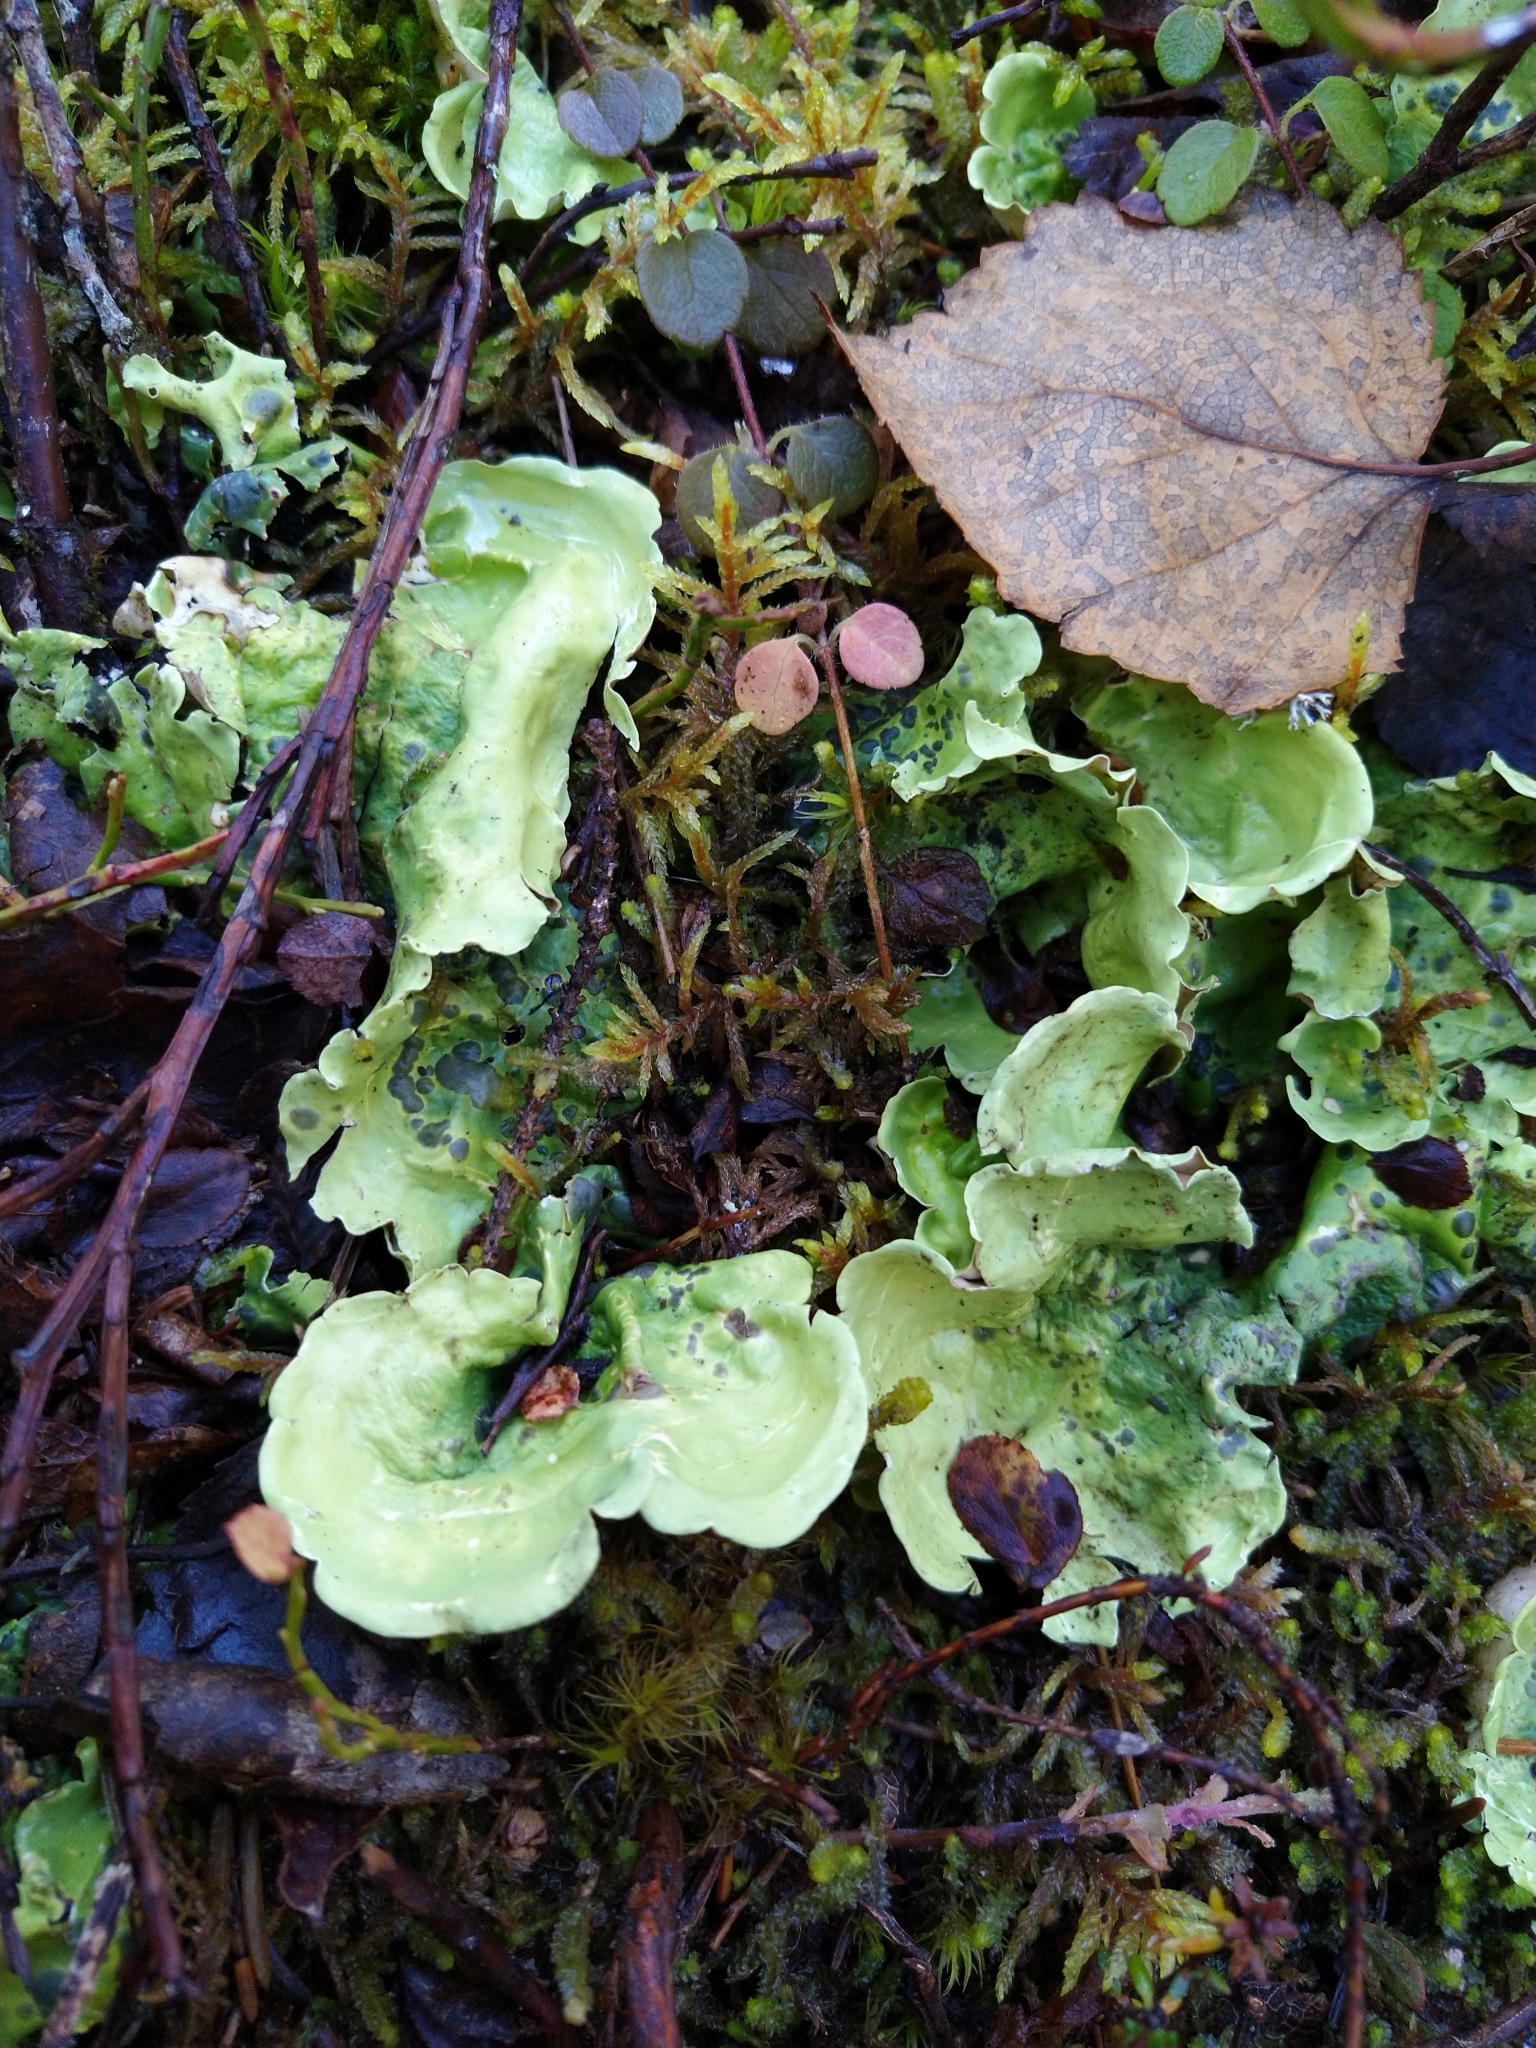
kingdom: Fungi
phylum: Ascomycota
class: Lecanoromycetes
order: Peltigerales
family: Nephromataceae
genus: Nephroma
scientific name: Nephroma arcticum
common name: Arctic kidney-lichen
